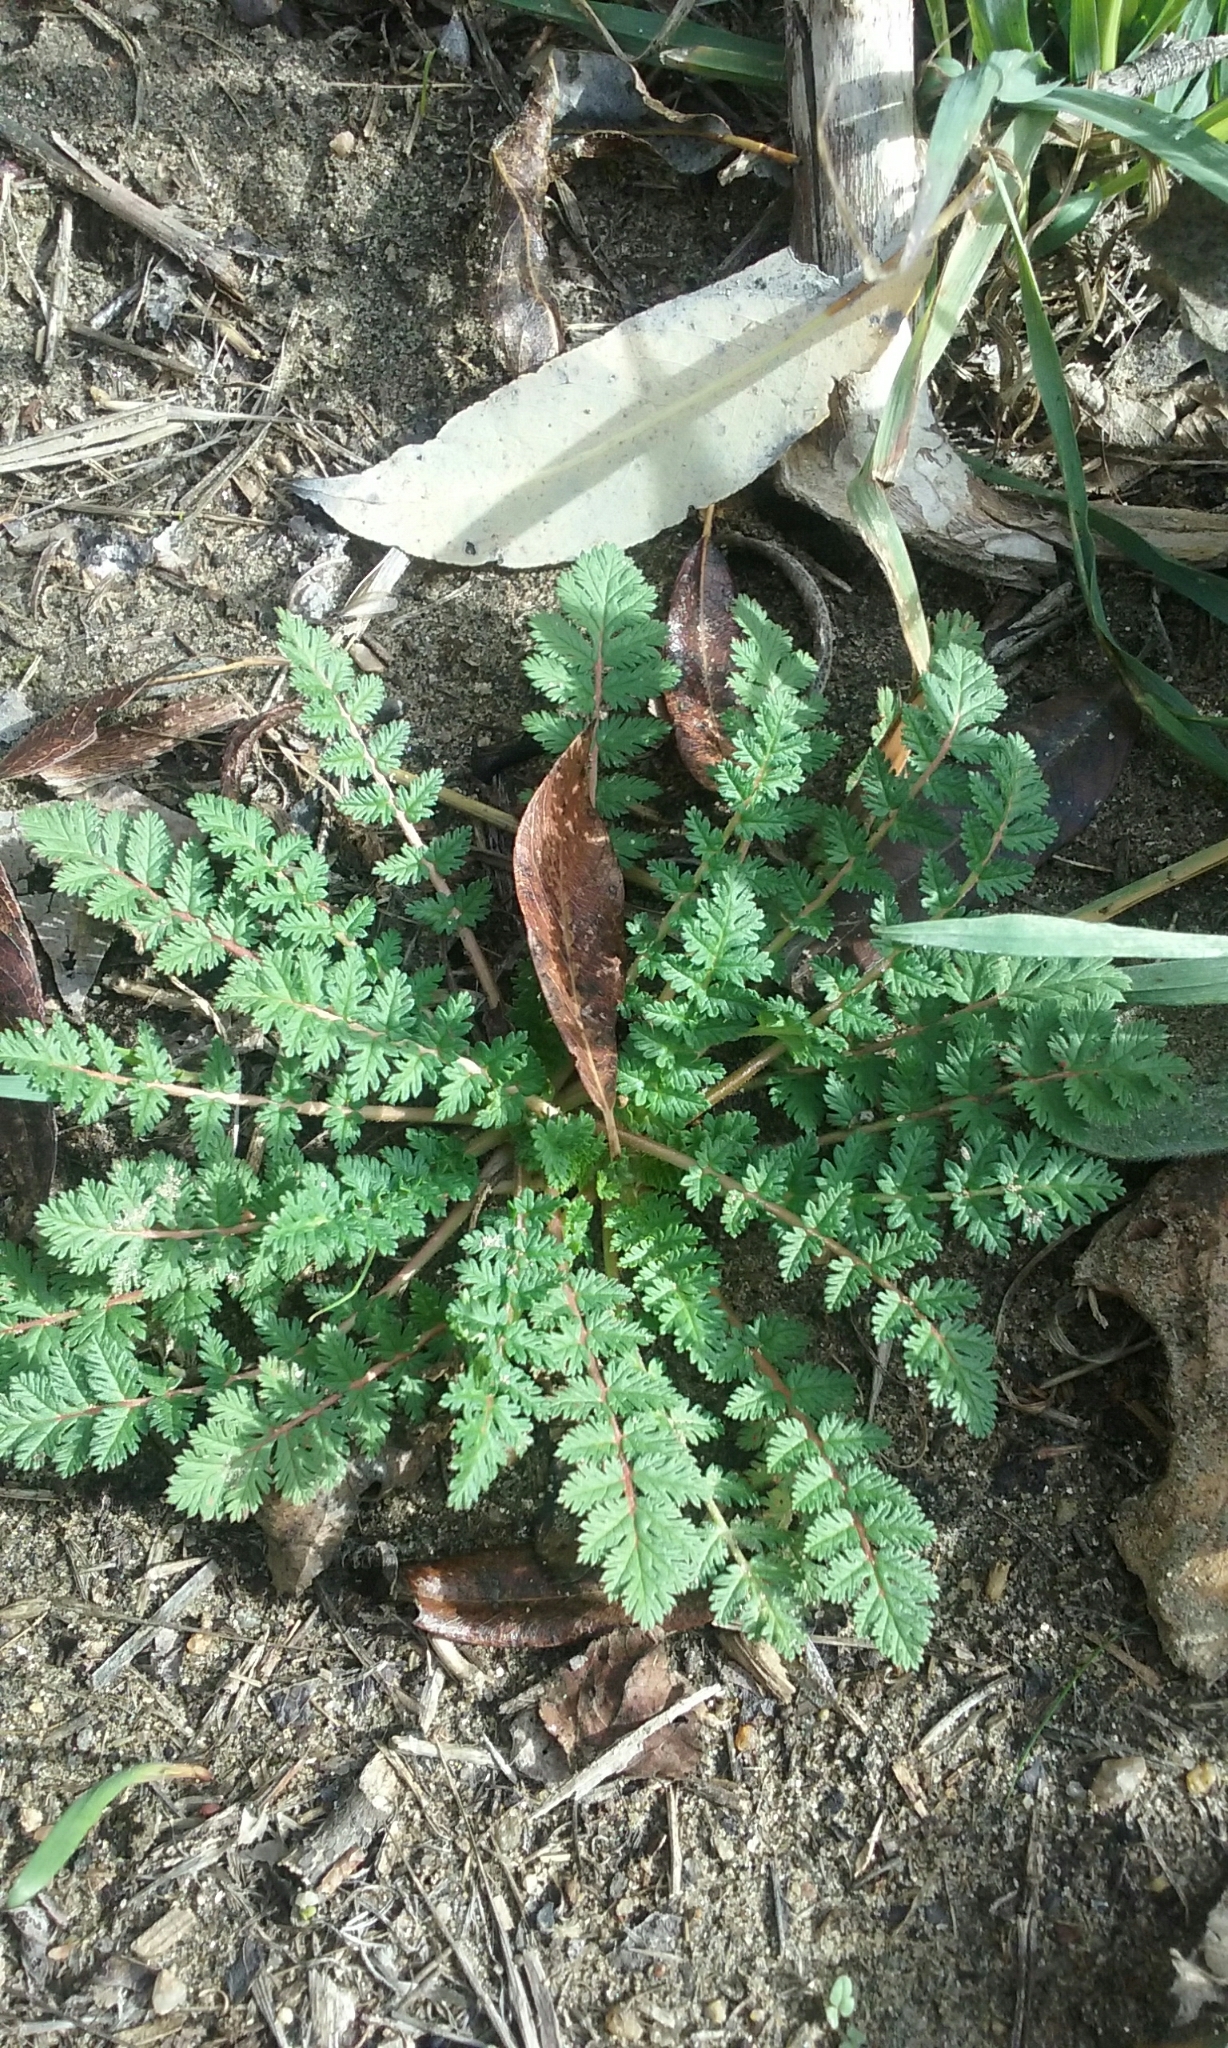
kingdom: Plantae
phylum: Tracheophyta
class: Magnoliopsida
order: Geraniales
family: Geraniaceae
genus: Erodium
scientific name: Erodium cicutarium
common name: Common stork's-bill
